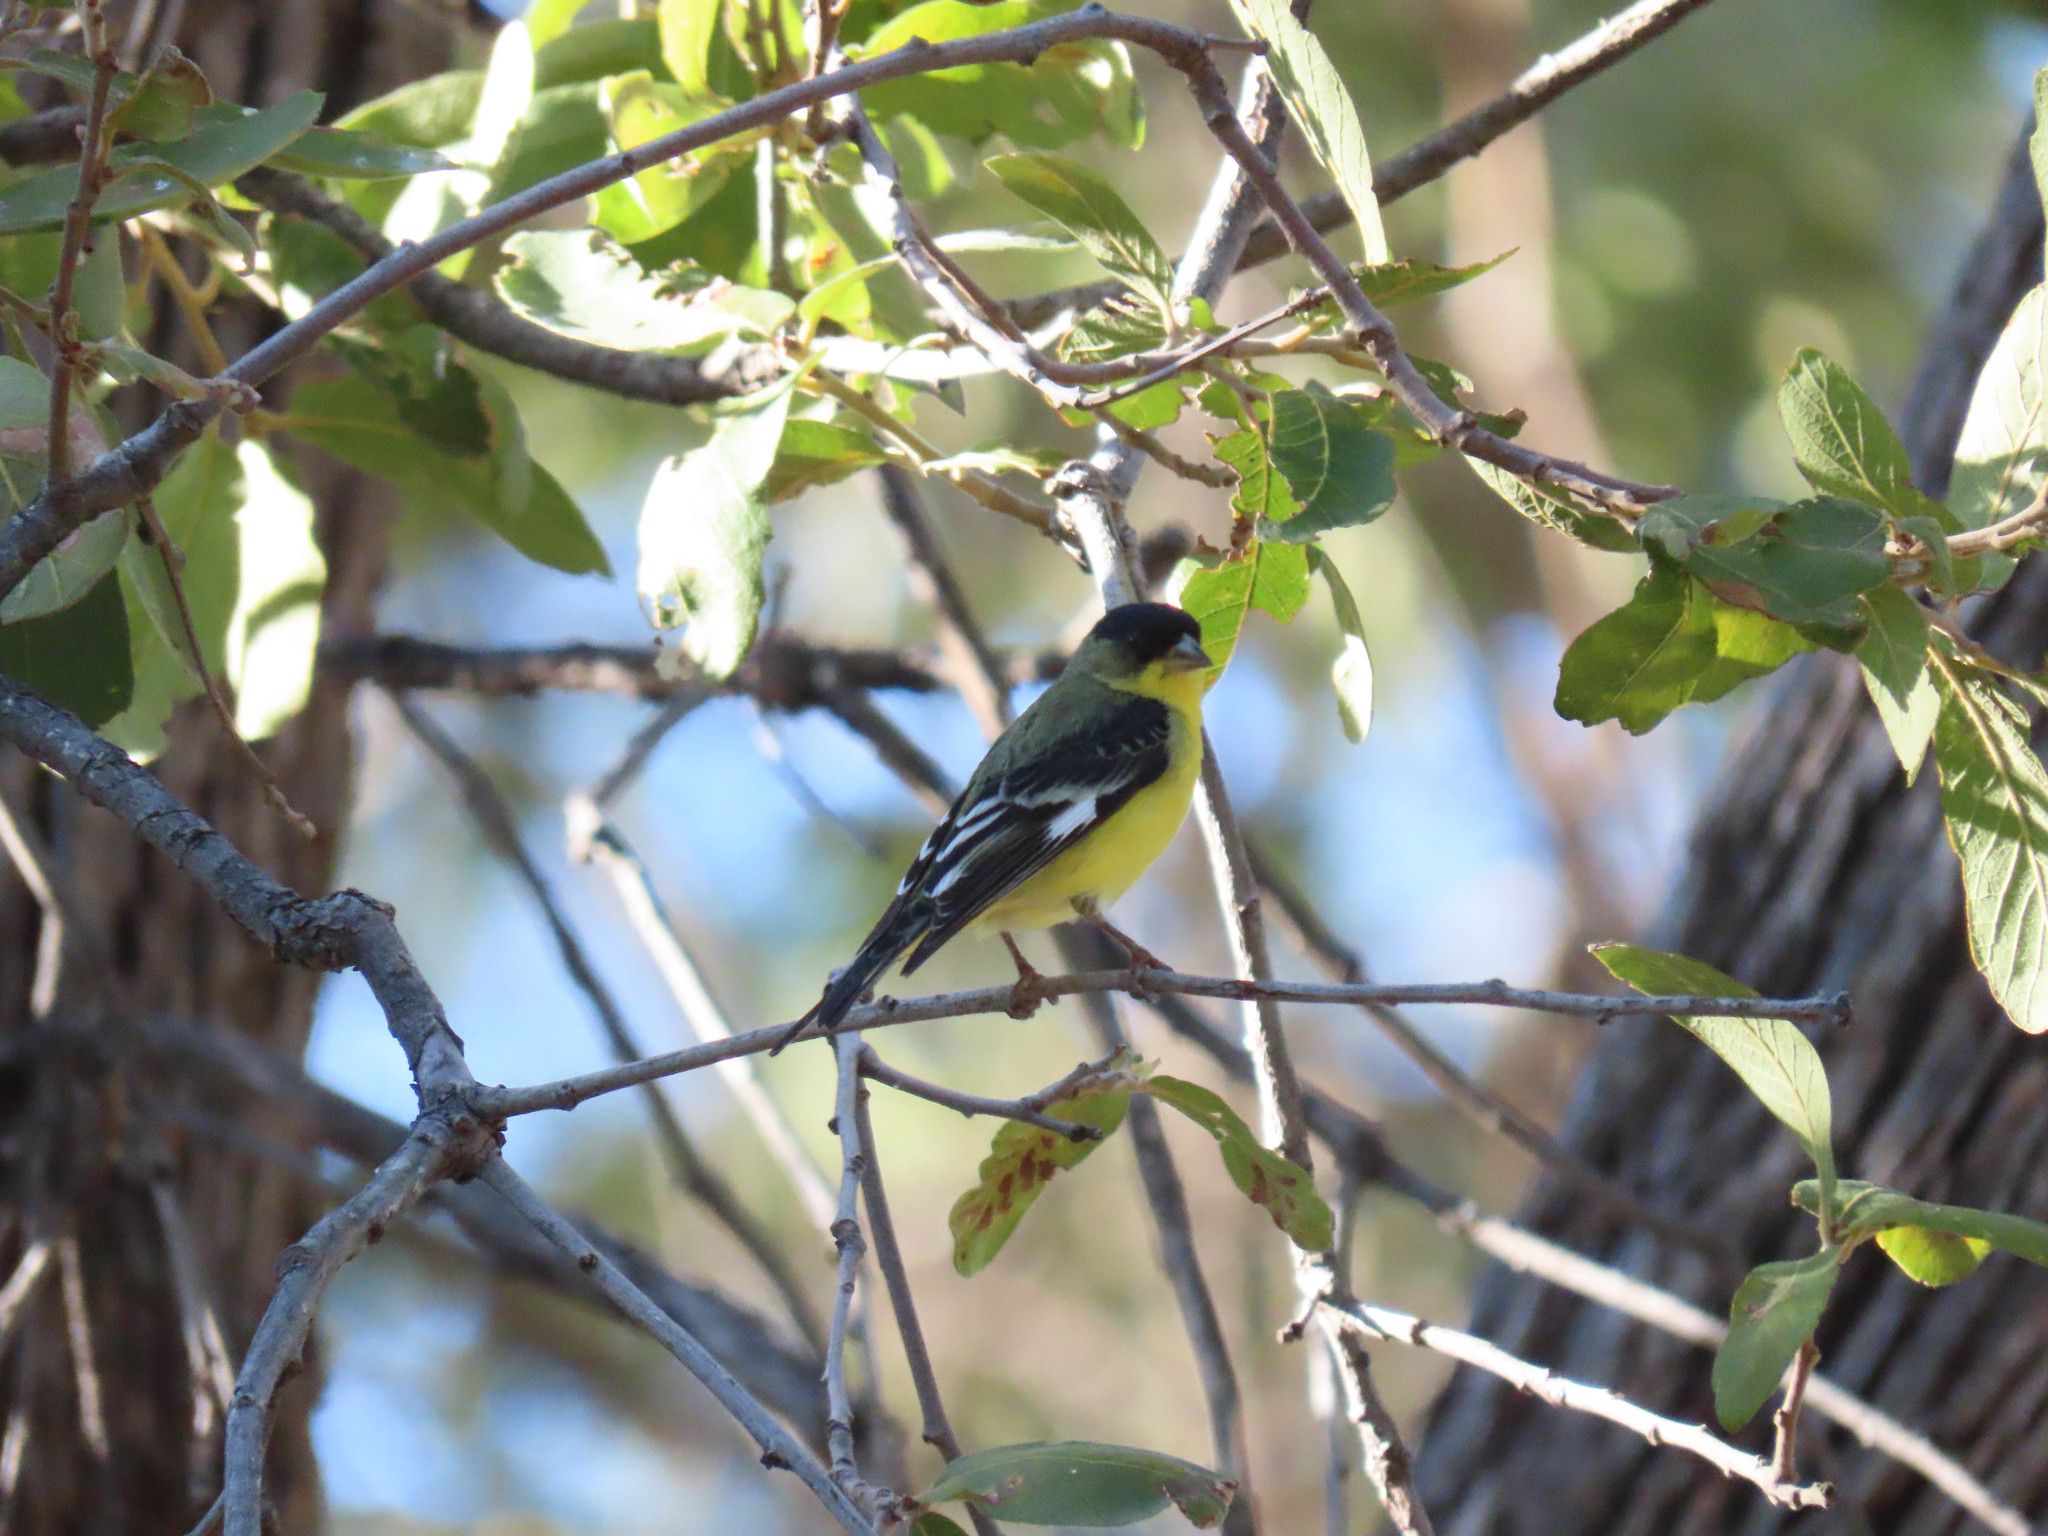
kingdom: Animalia
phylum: Chordata
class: Aves
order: Passeriformes
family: Fringillidae
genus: Spinus
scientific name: Spinus psaltria
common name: Lesser goldfinch
